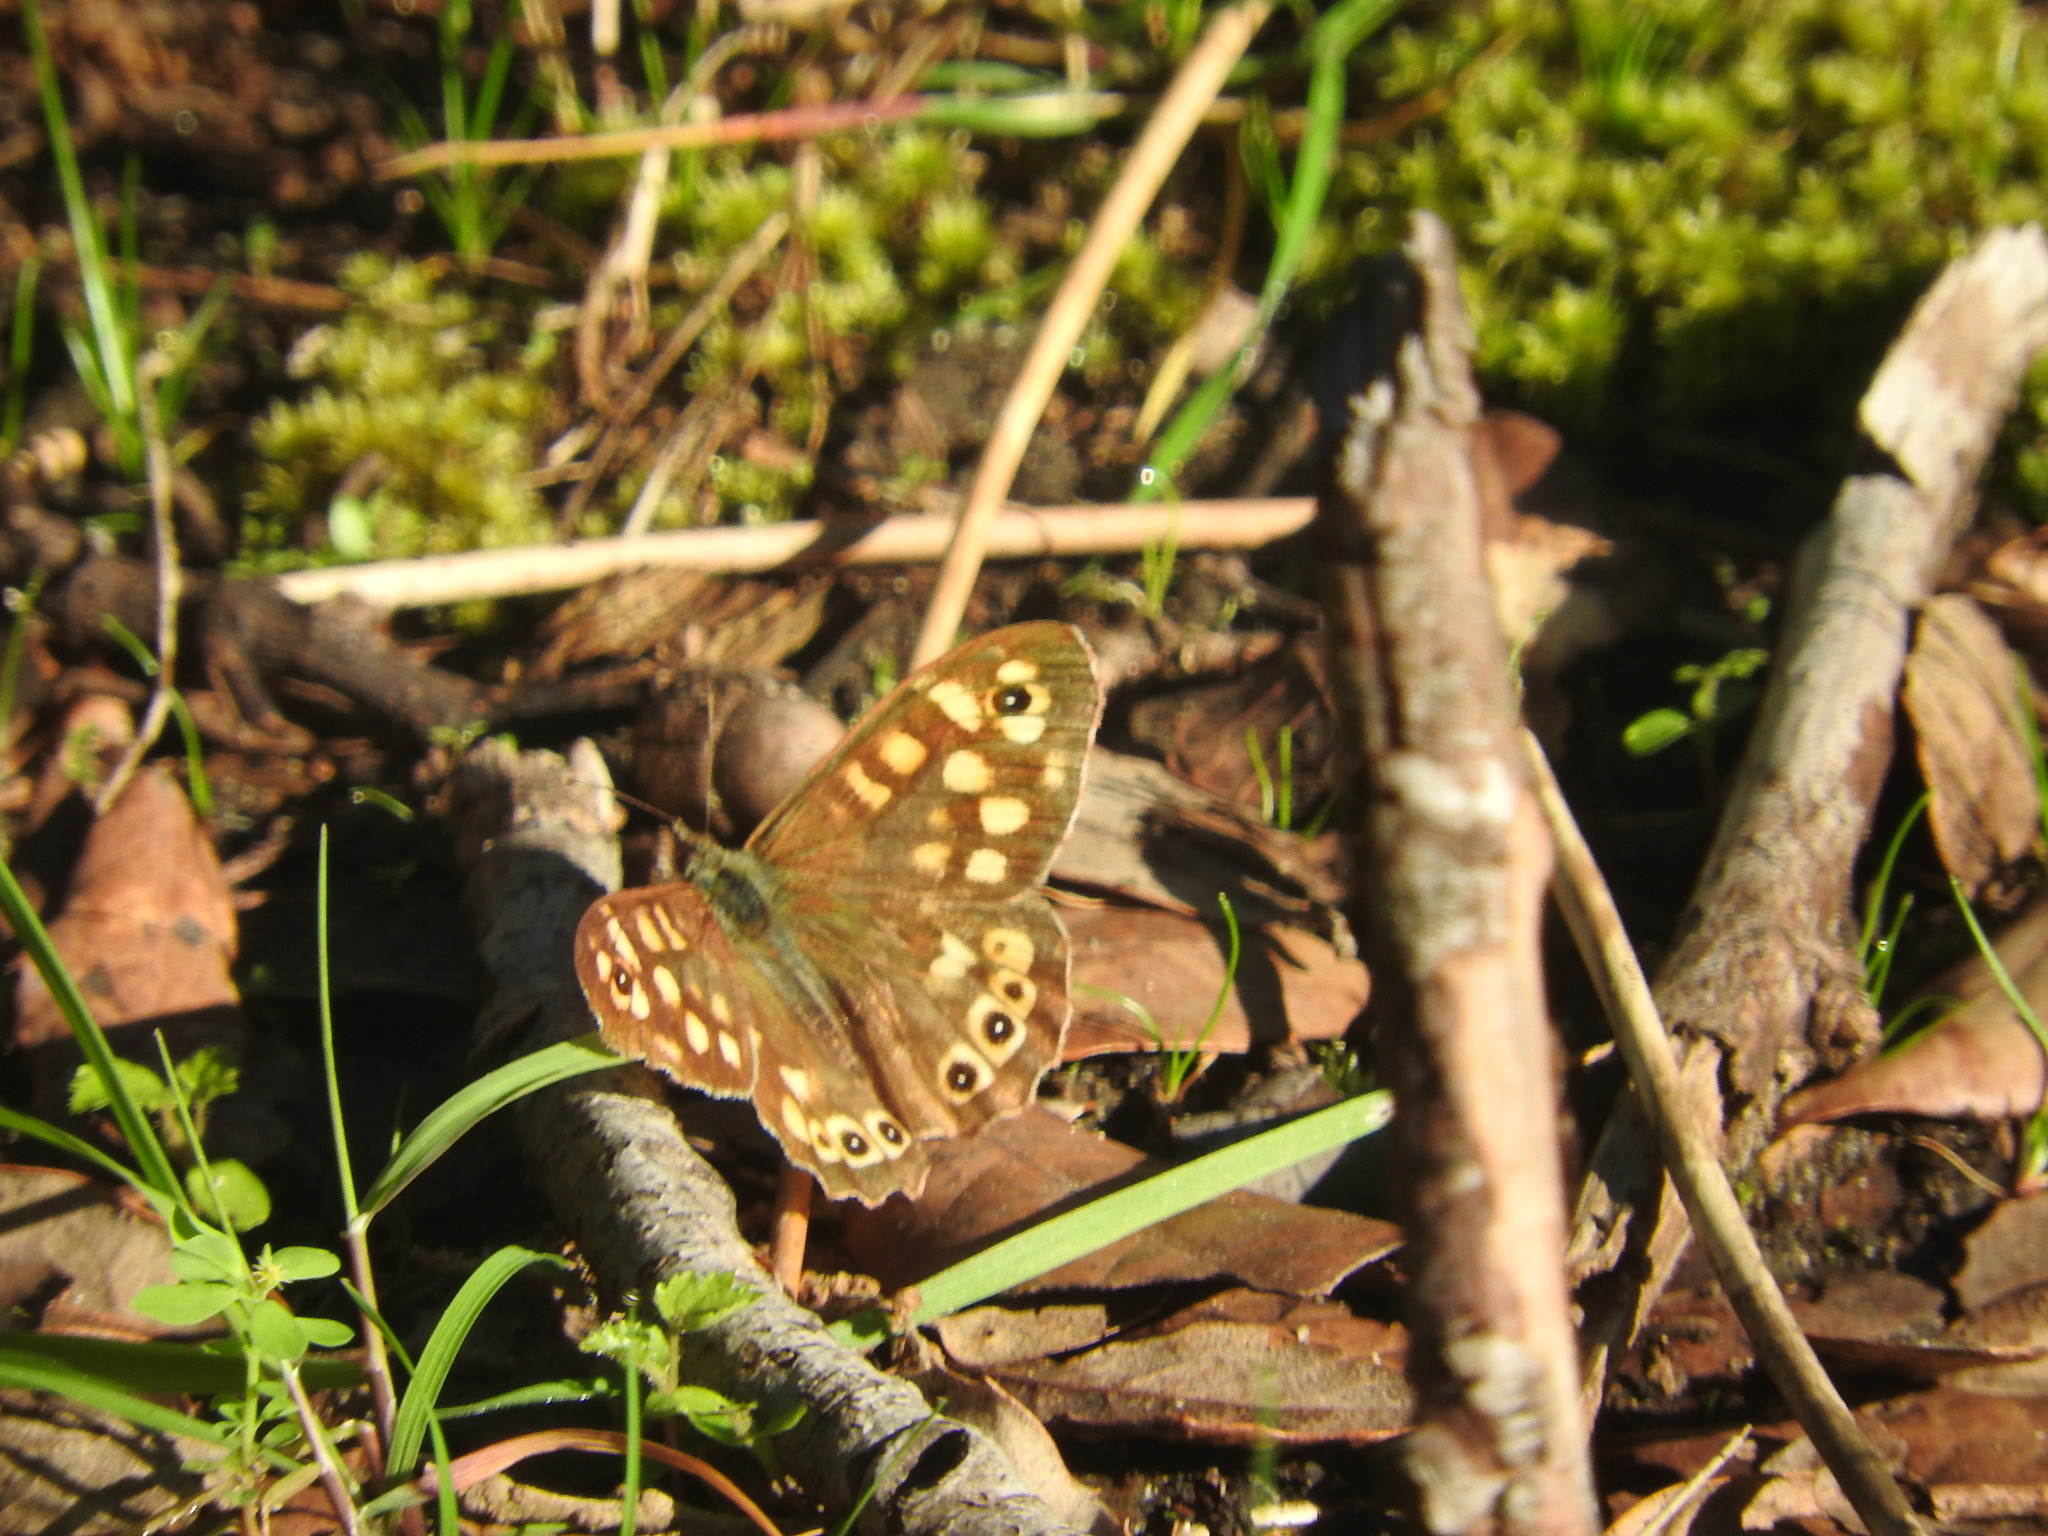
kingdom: Animalia
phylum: Arthropoda
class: Insecta
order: Lepidoptera
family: Nymphalidae
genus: Pararge
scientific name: Pararge aegeria
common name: Speckled wood
